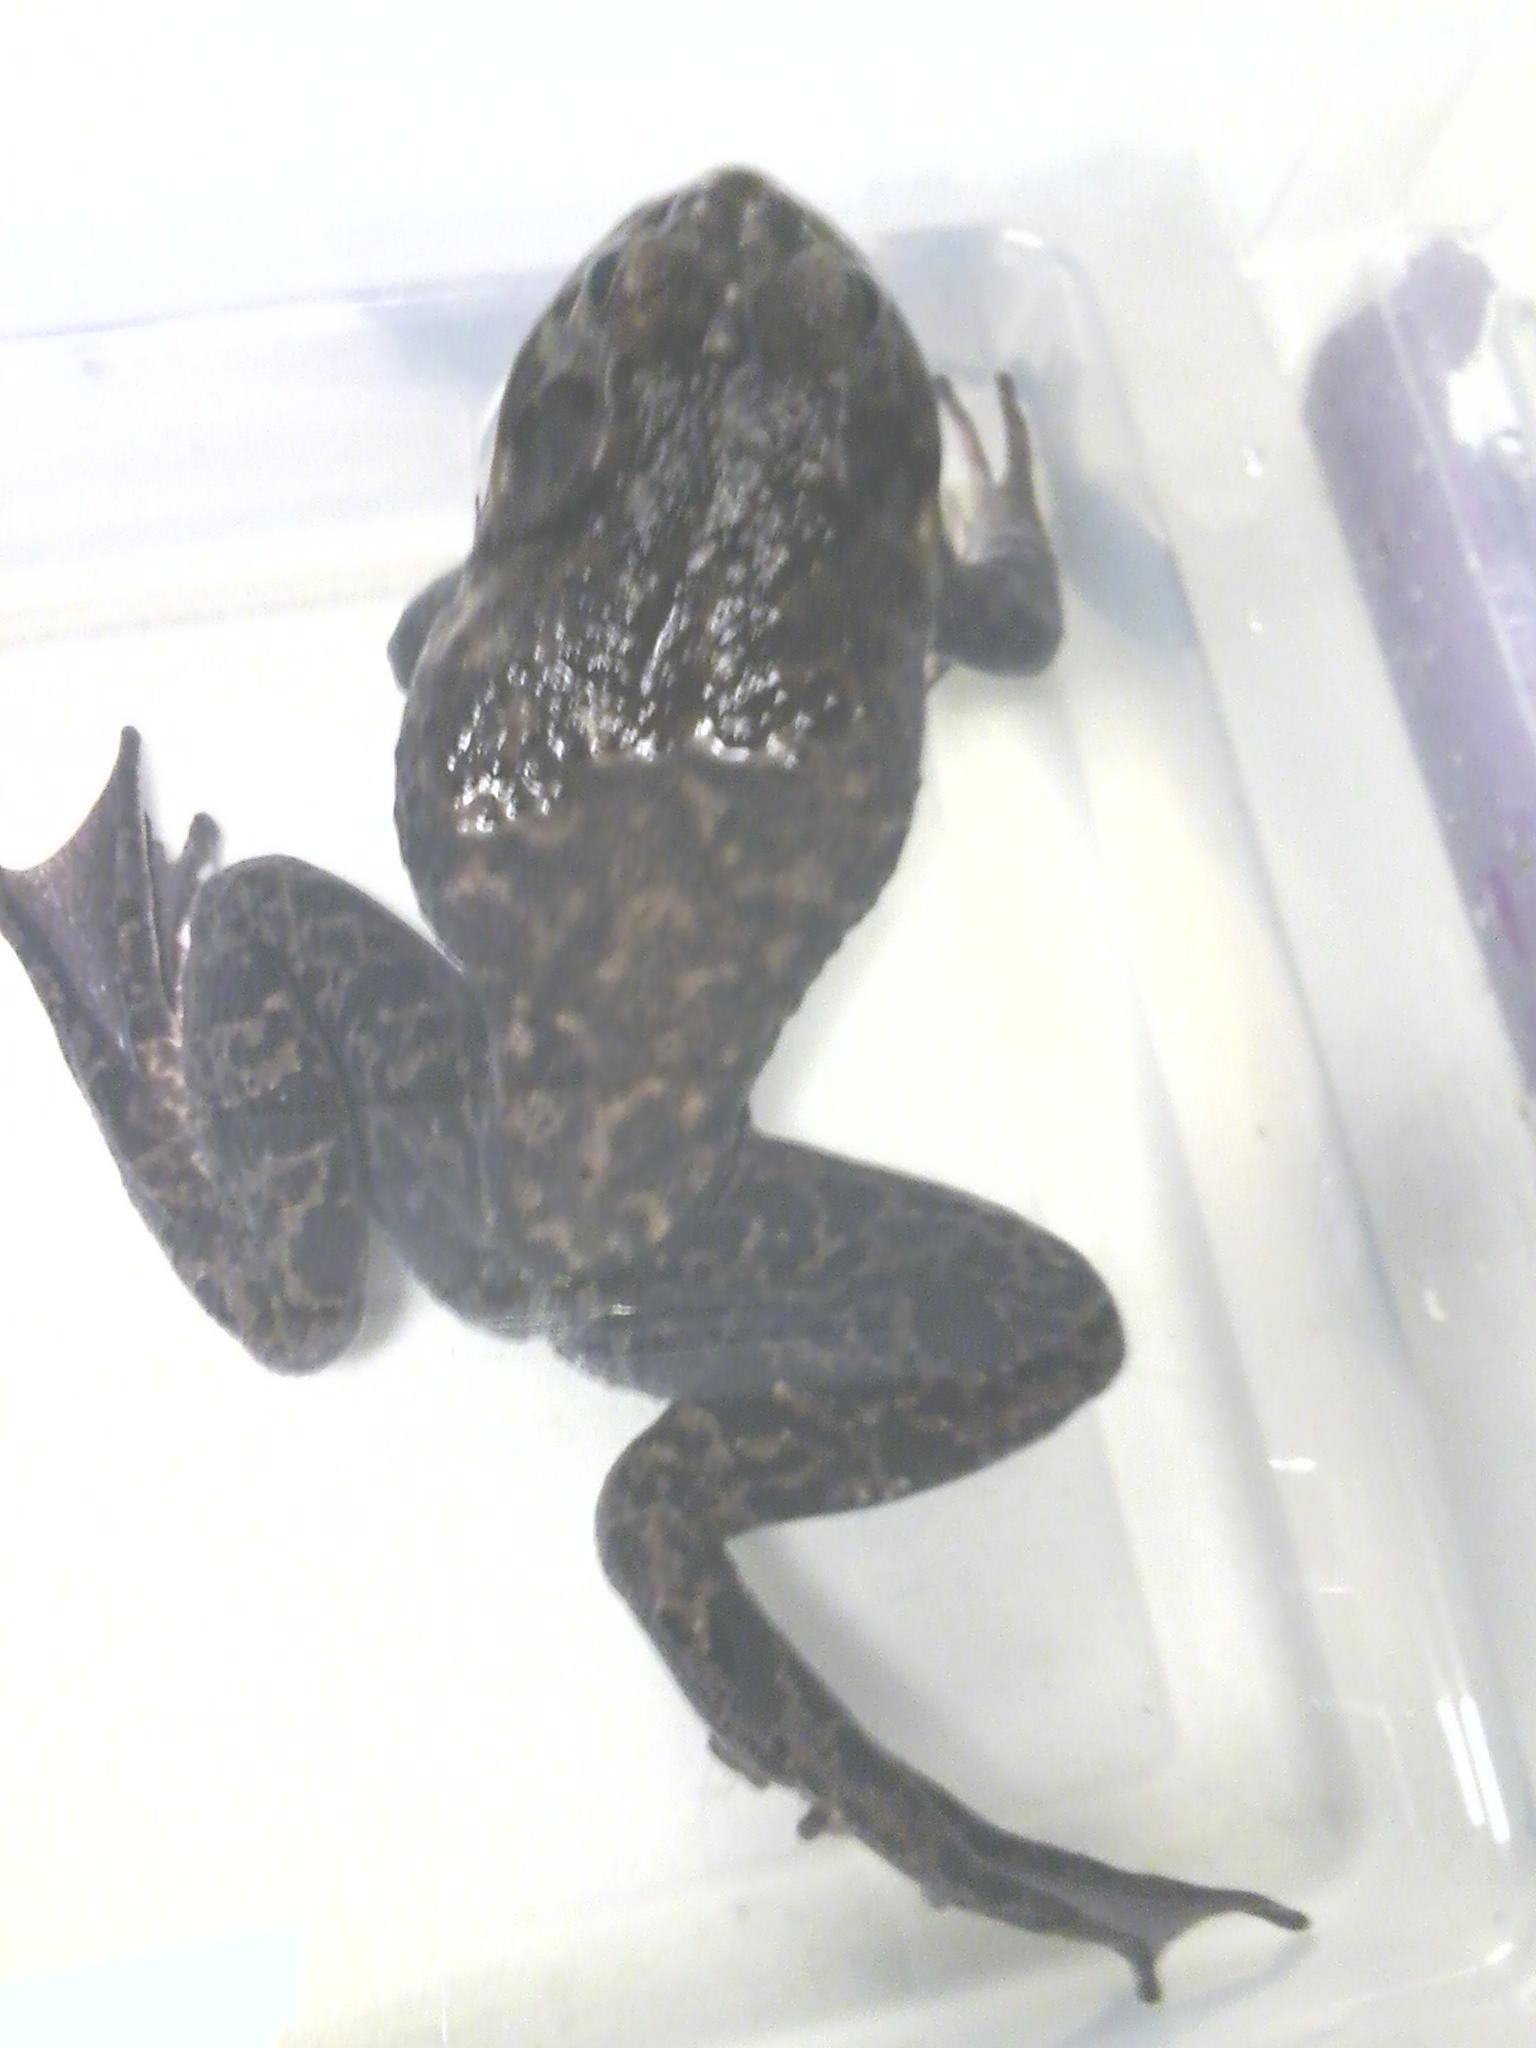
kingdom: Animalia
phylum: Chordata
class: Amphibia
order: Anura
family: Ranidae
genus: Lithobates
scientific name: Lithobates catesbeianus
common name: American bullfrog
